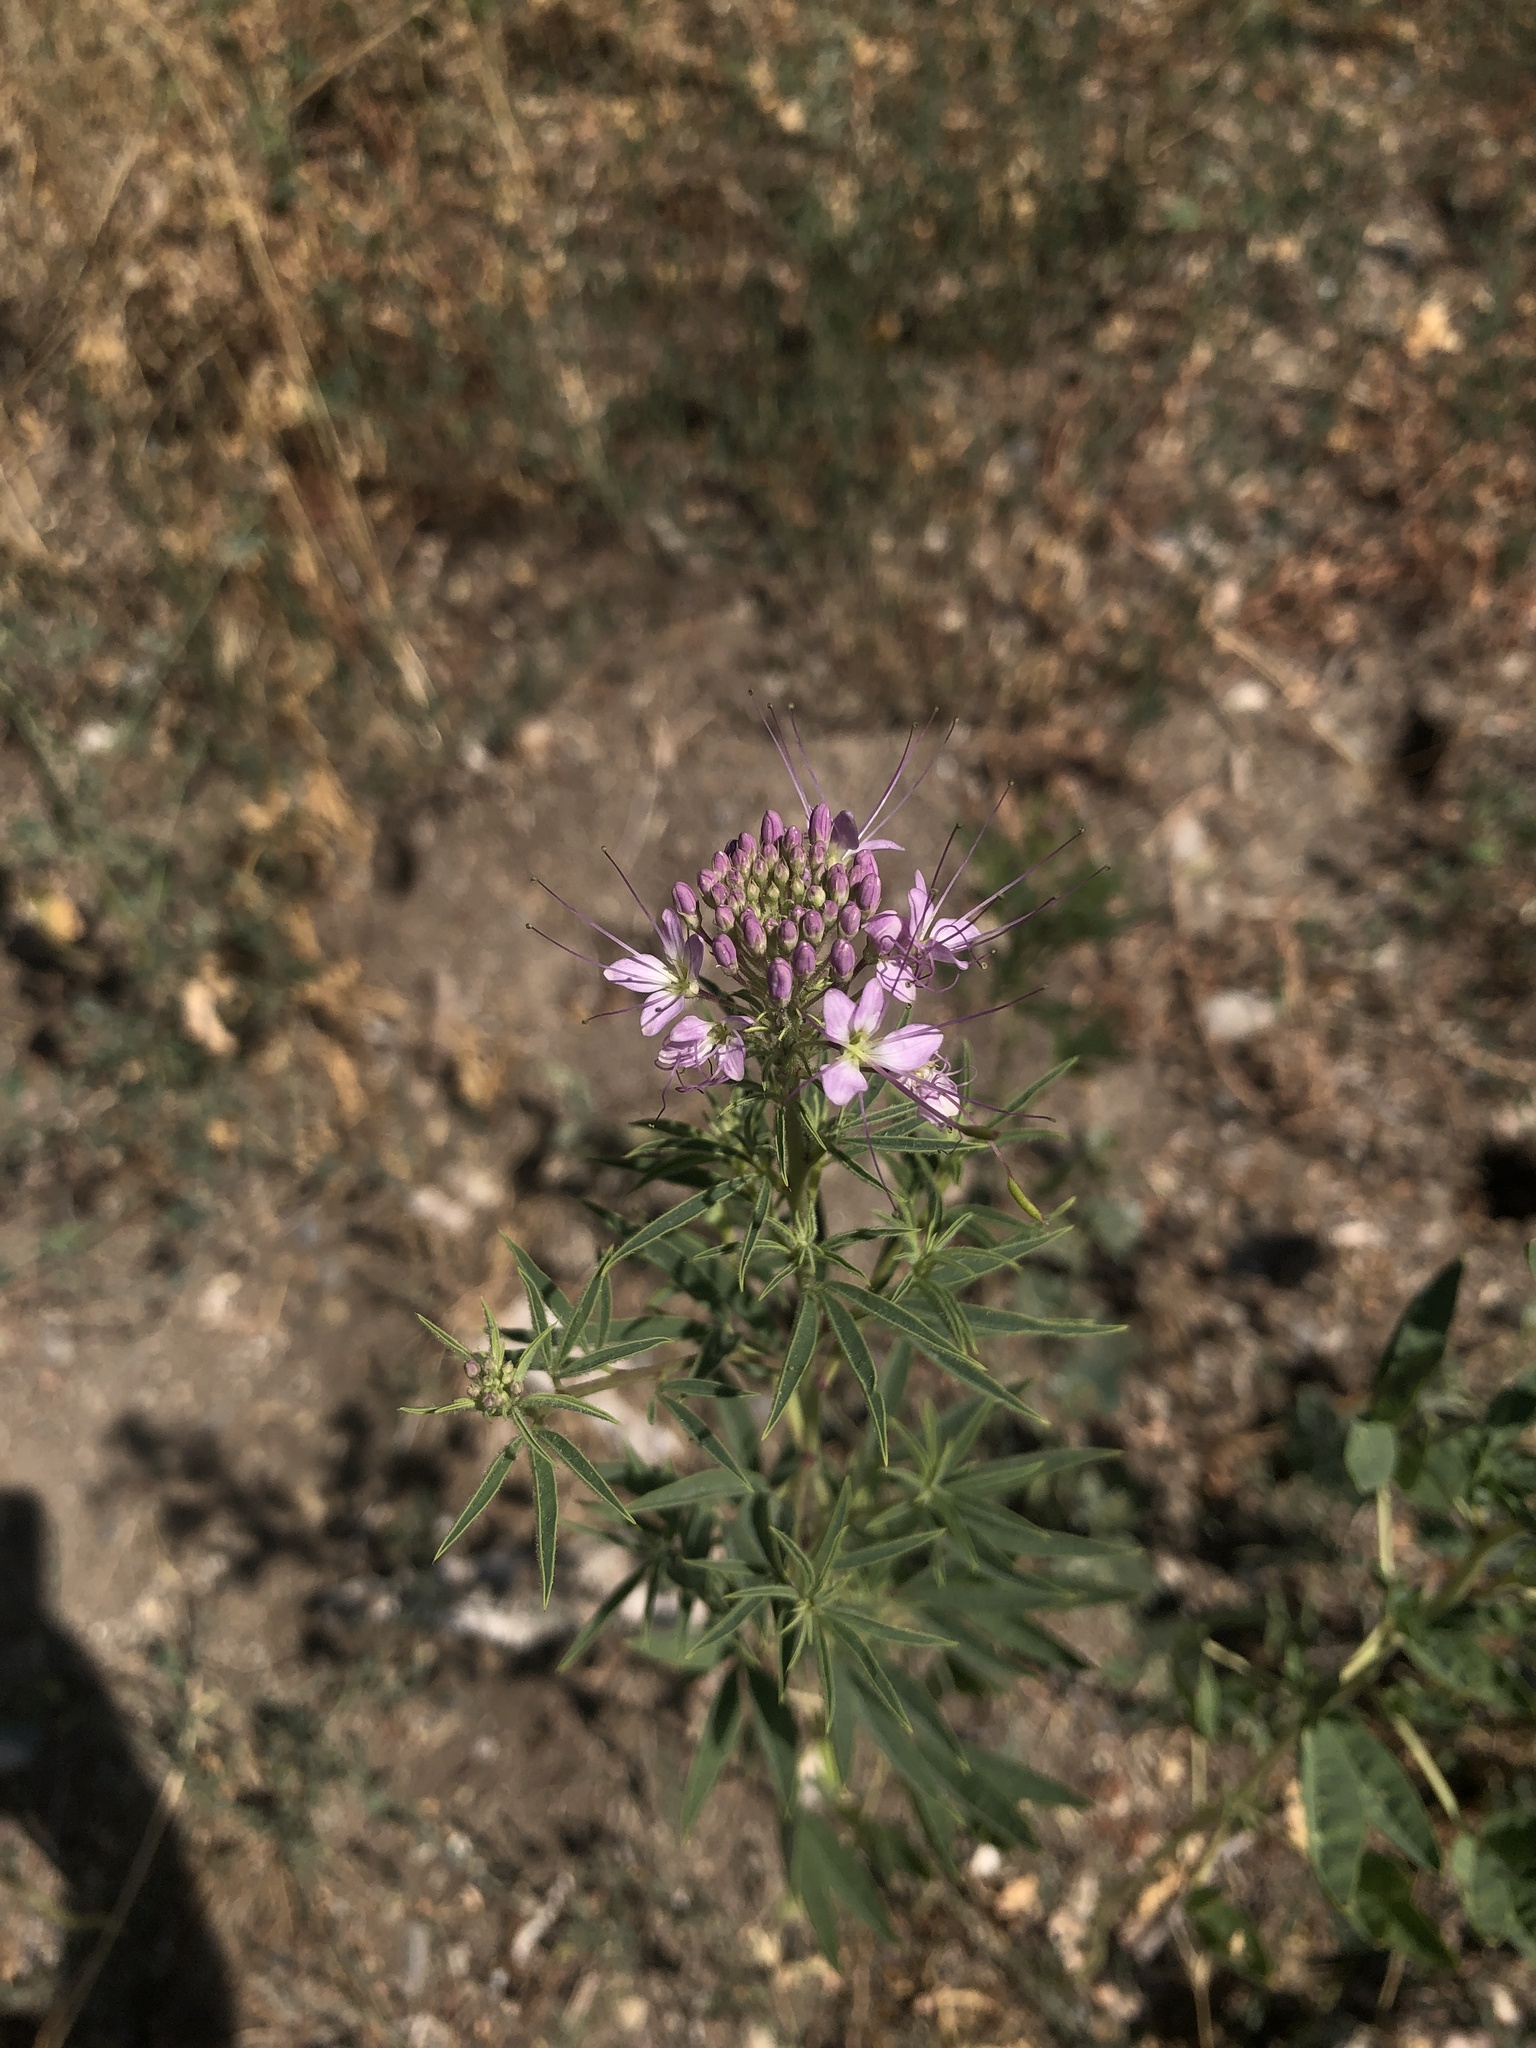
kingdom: Plantae
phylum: Tracheophyta
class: Magnoliopsida
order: Brassicales
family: Cleomaceae
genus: Cleomella
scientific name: Cleomella serrulata
